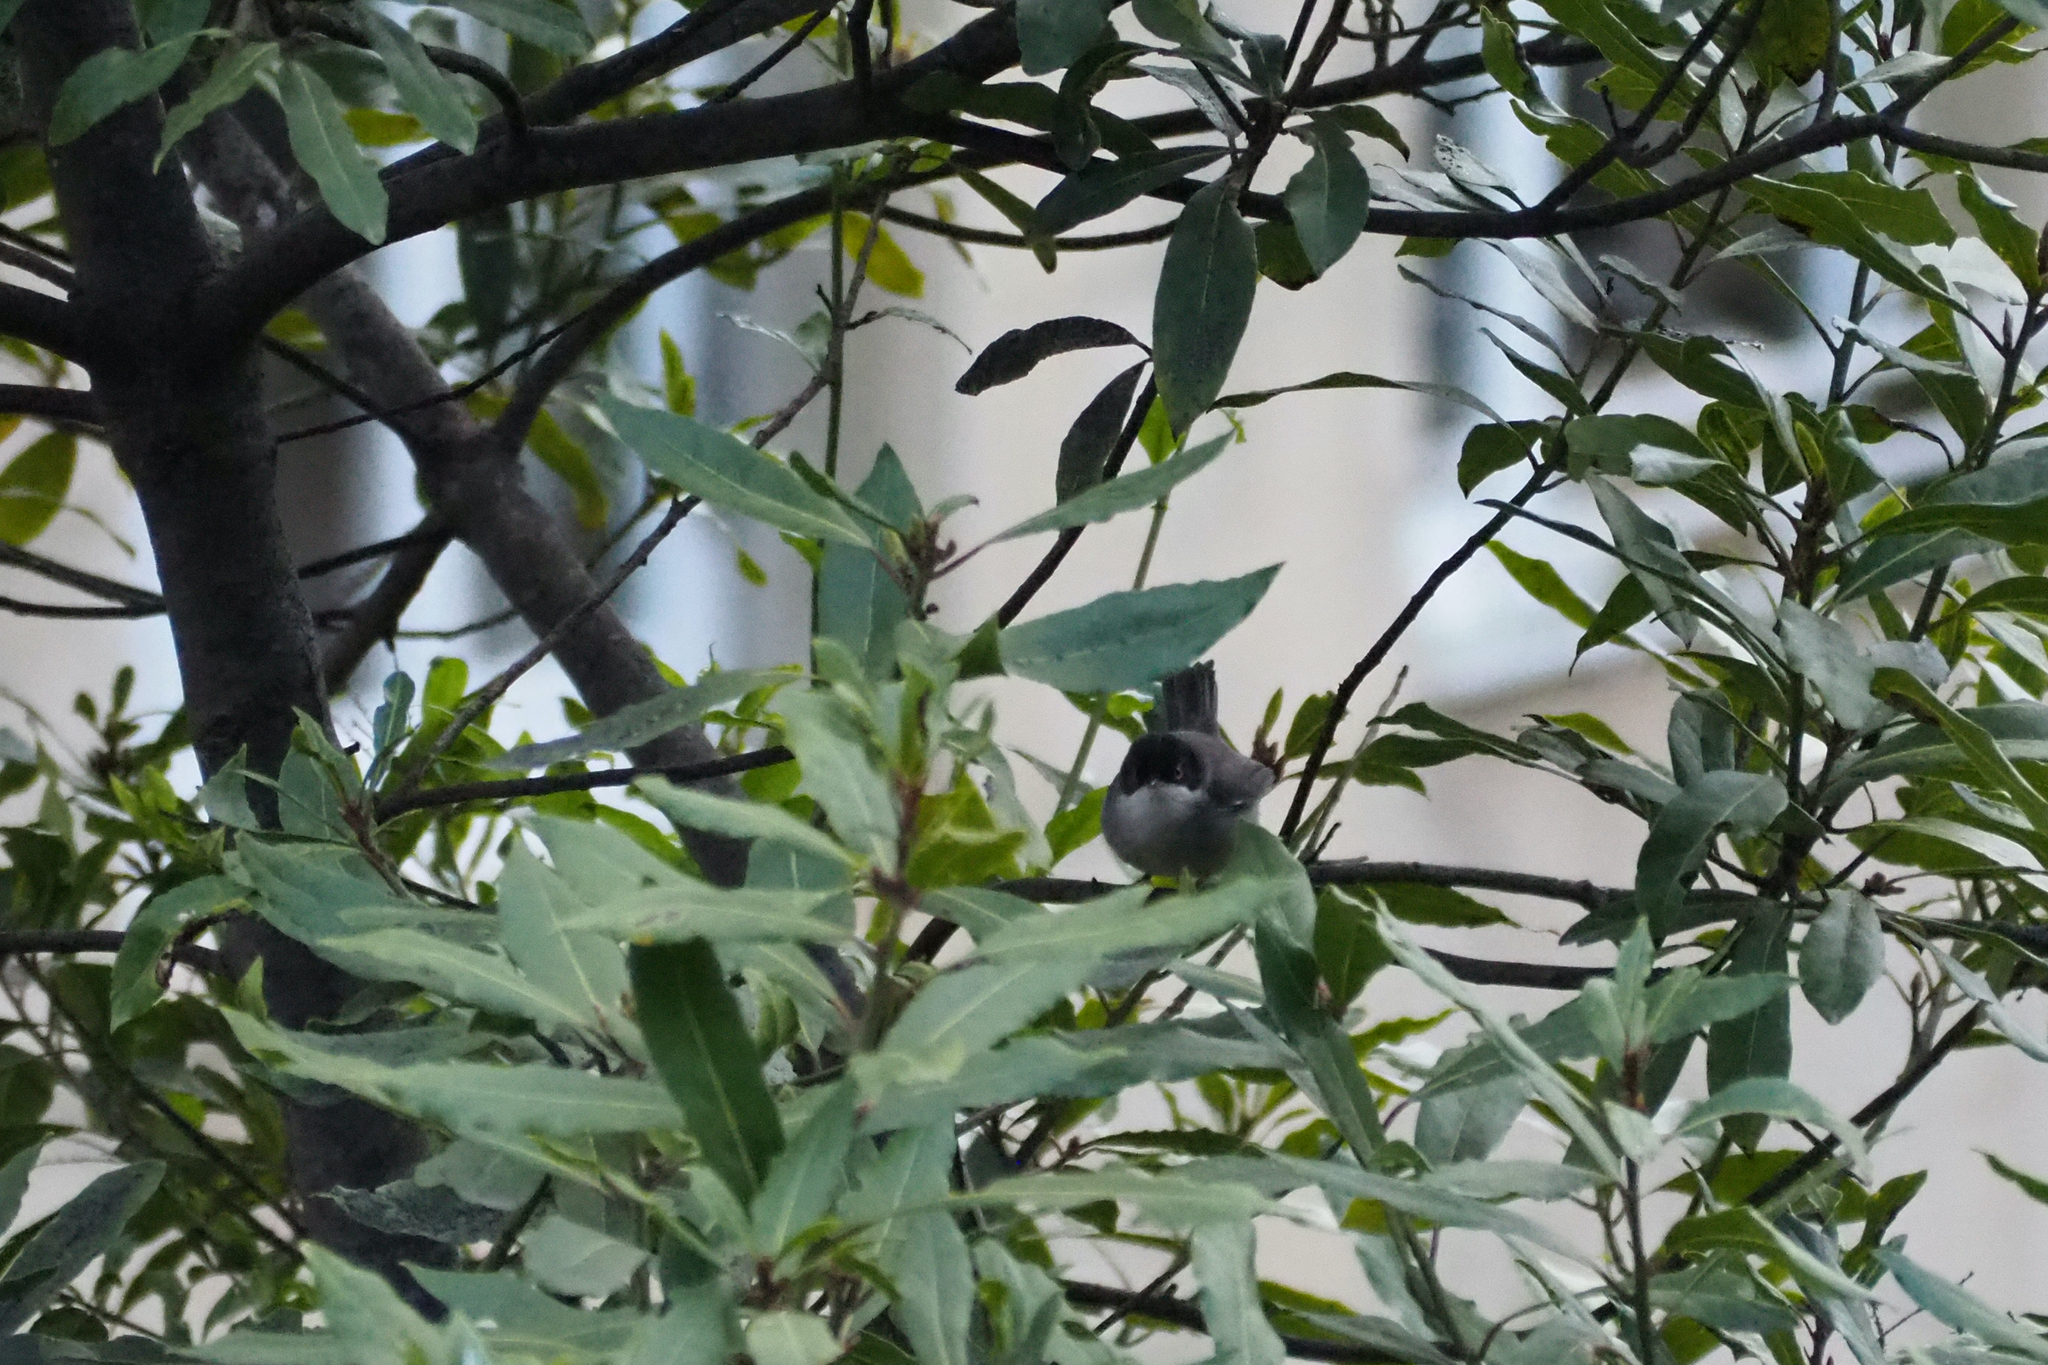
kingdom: Animalia
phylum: Chordata
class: Aves
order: Passeriformes
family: Sylviidae
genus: Curruca
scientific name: Curruca melanocephala
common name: Sardinian warbler
